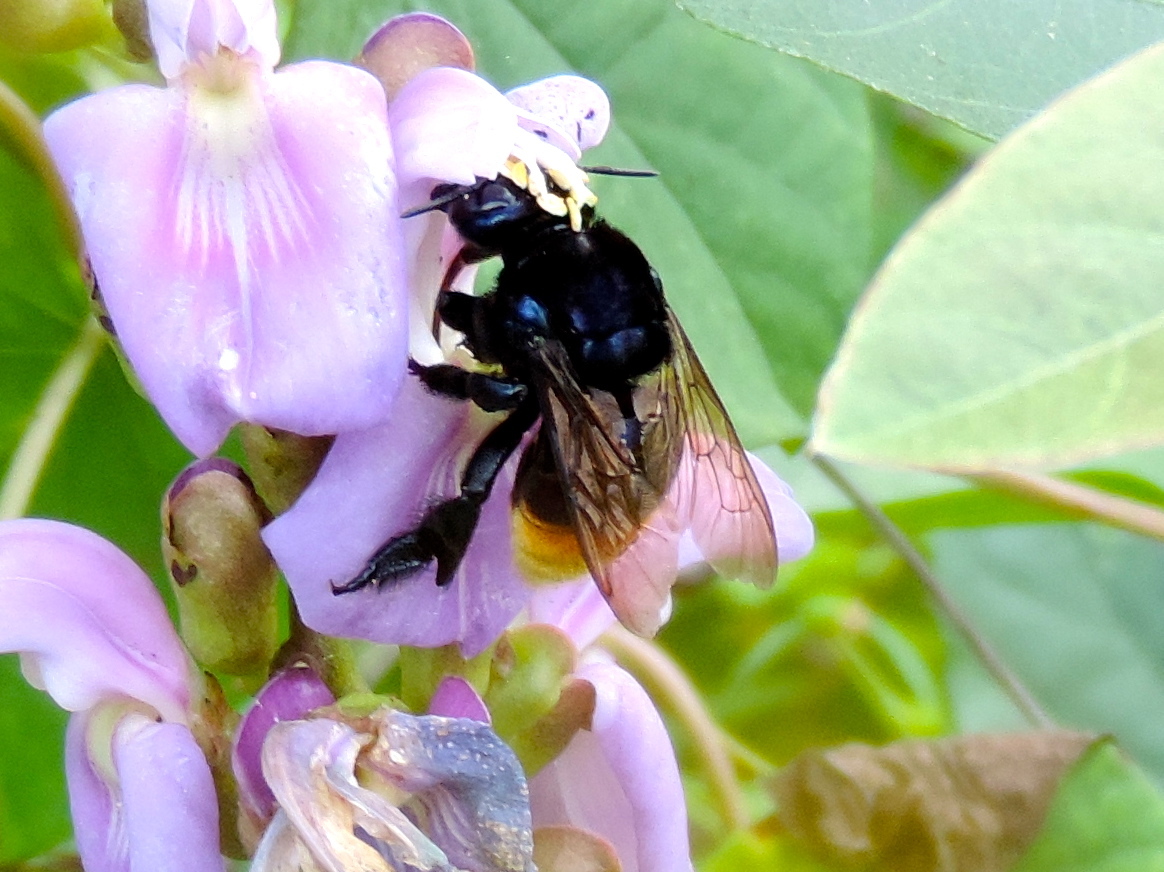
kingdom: Animalia
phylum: Arthropoda
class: Insecta
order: Hymenoptera
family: Apidae
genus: Eufriesea
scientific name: Eufriesea
